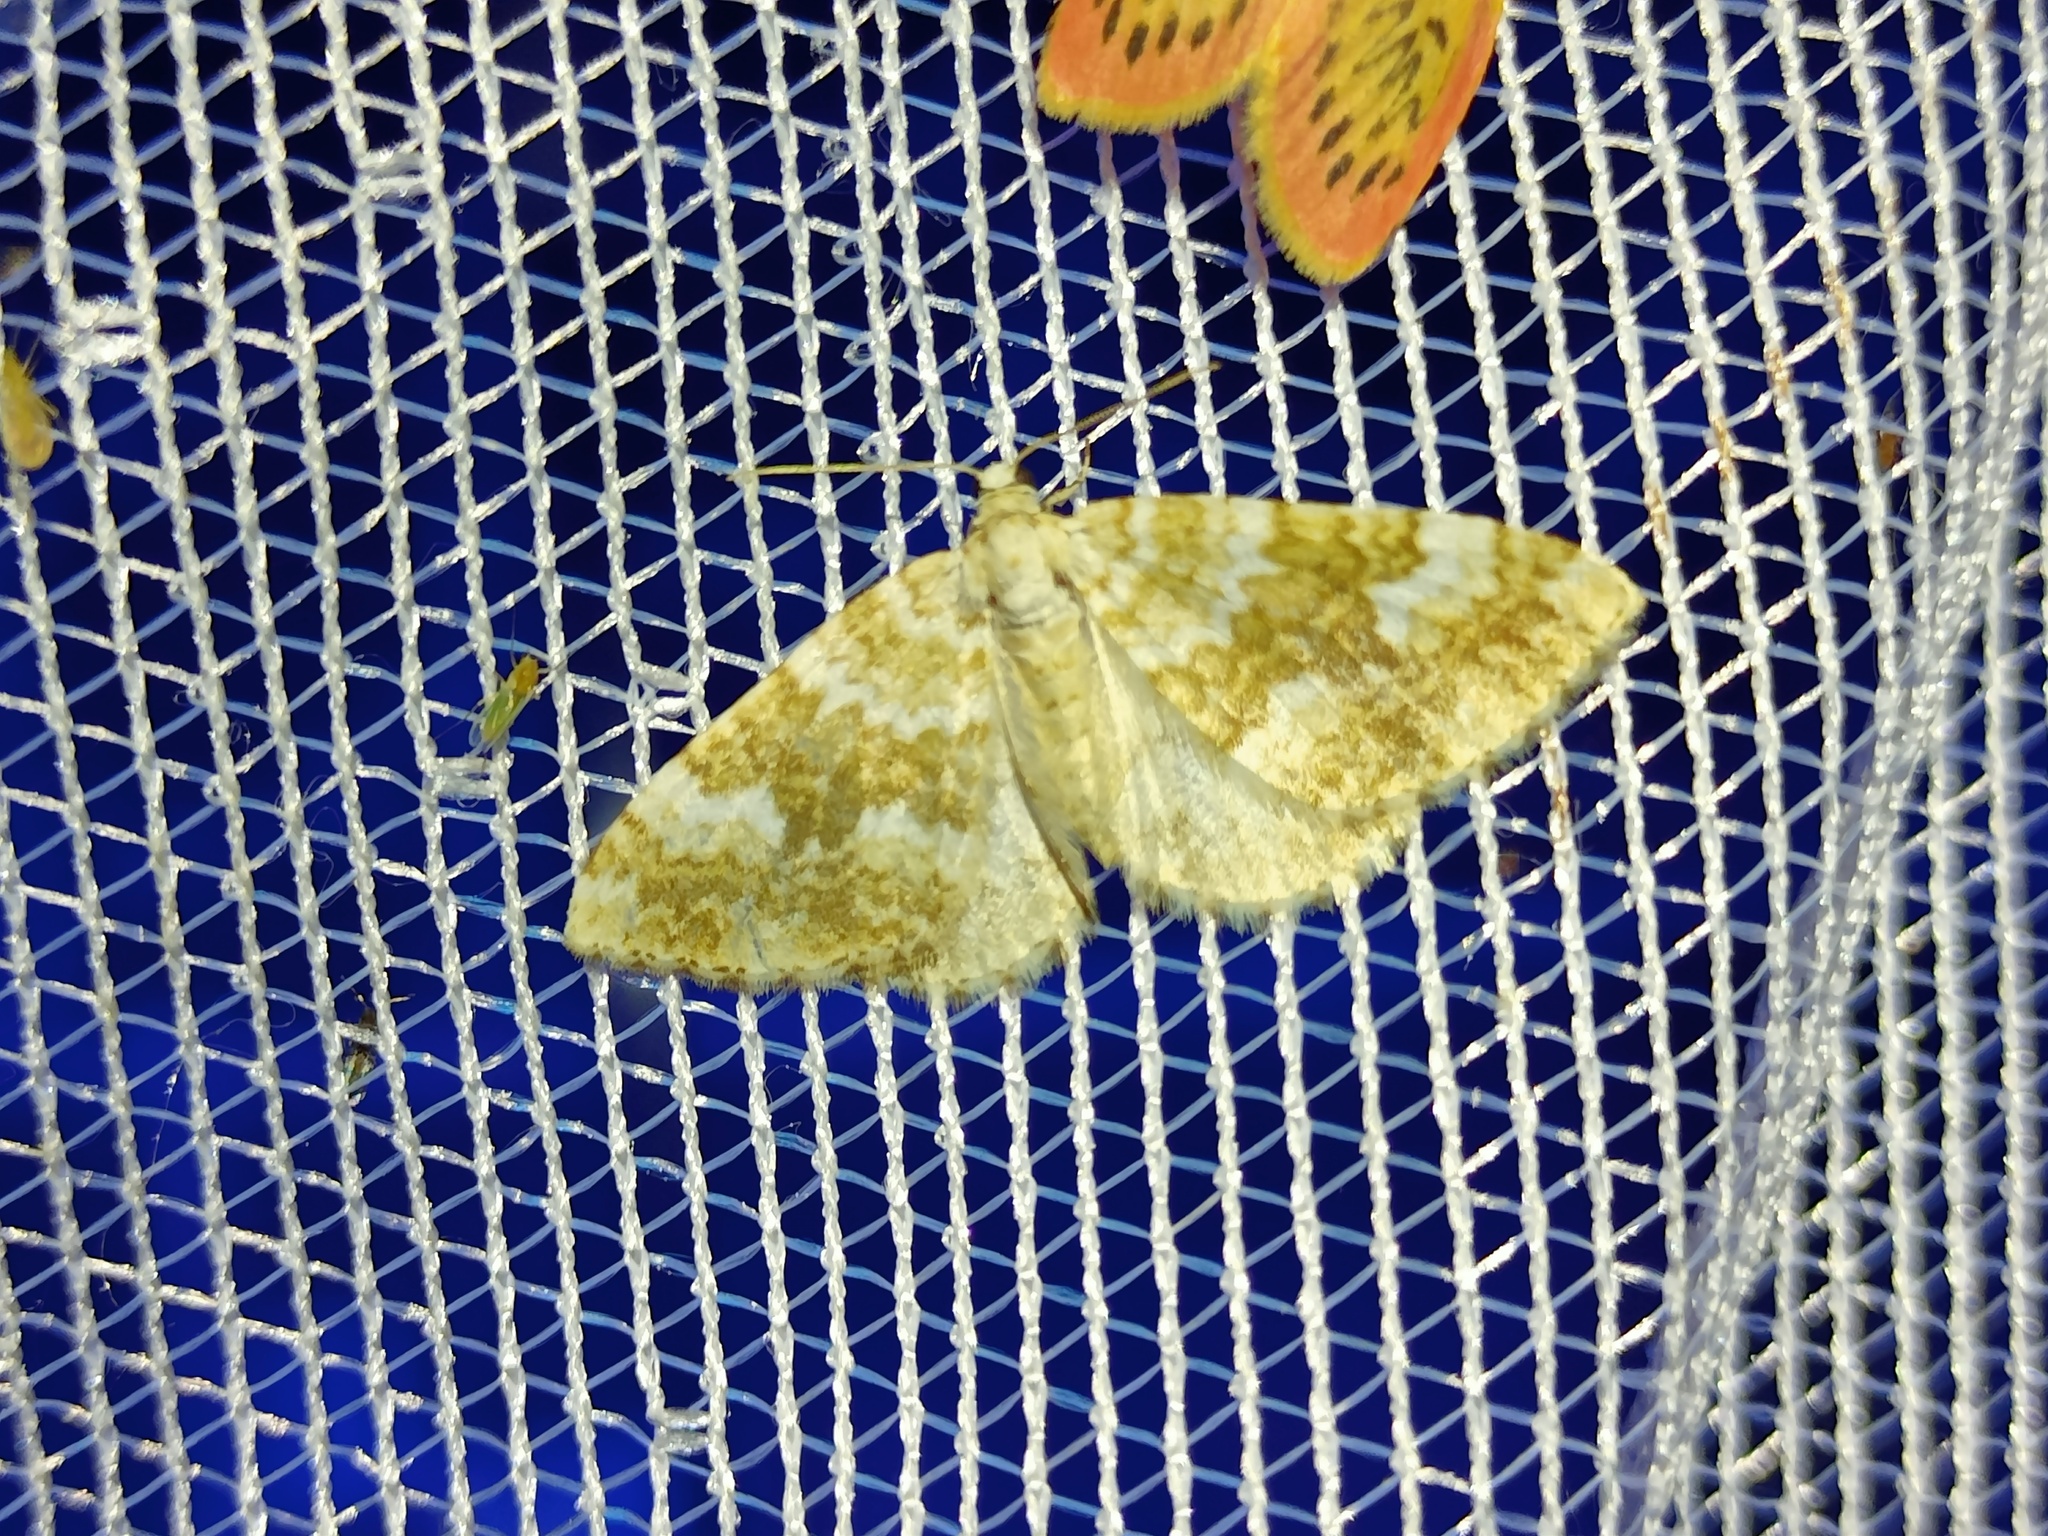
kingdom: Animalia
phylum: Arthropoda
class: Insecta
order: Lepidoptera
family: Geometridae
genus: Perizoma
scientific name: Perizoma flavofasciata
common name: Sandy carpet
